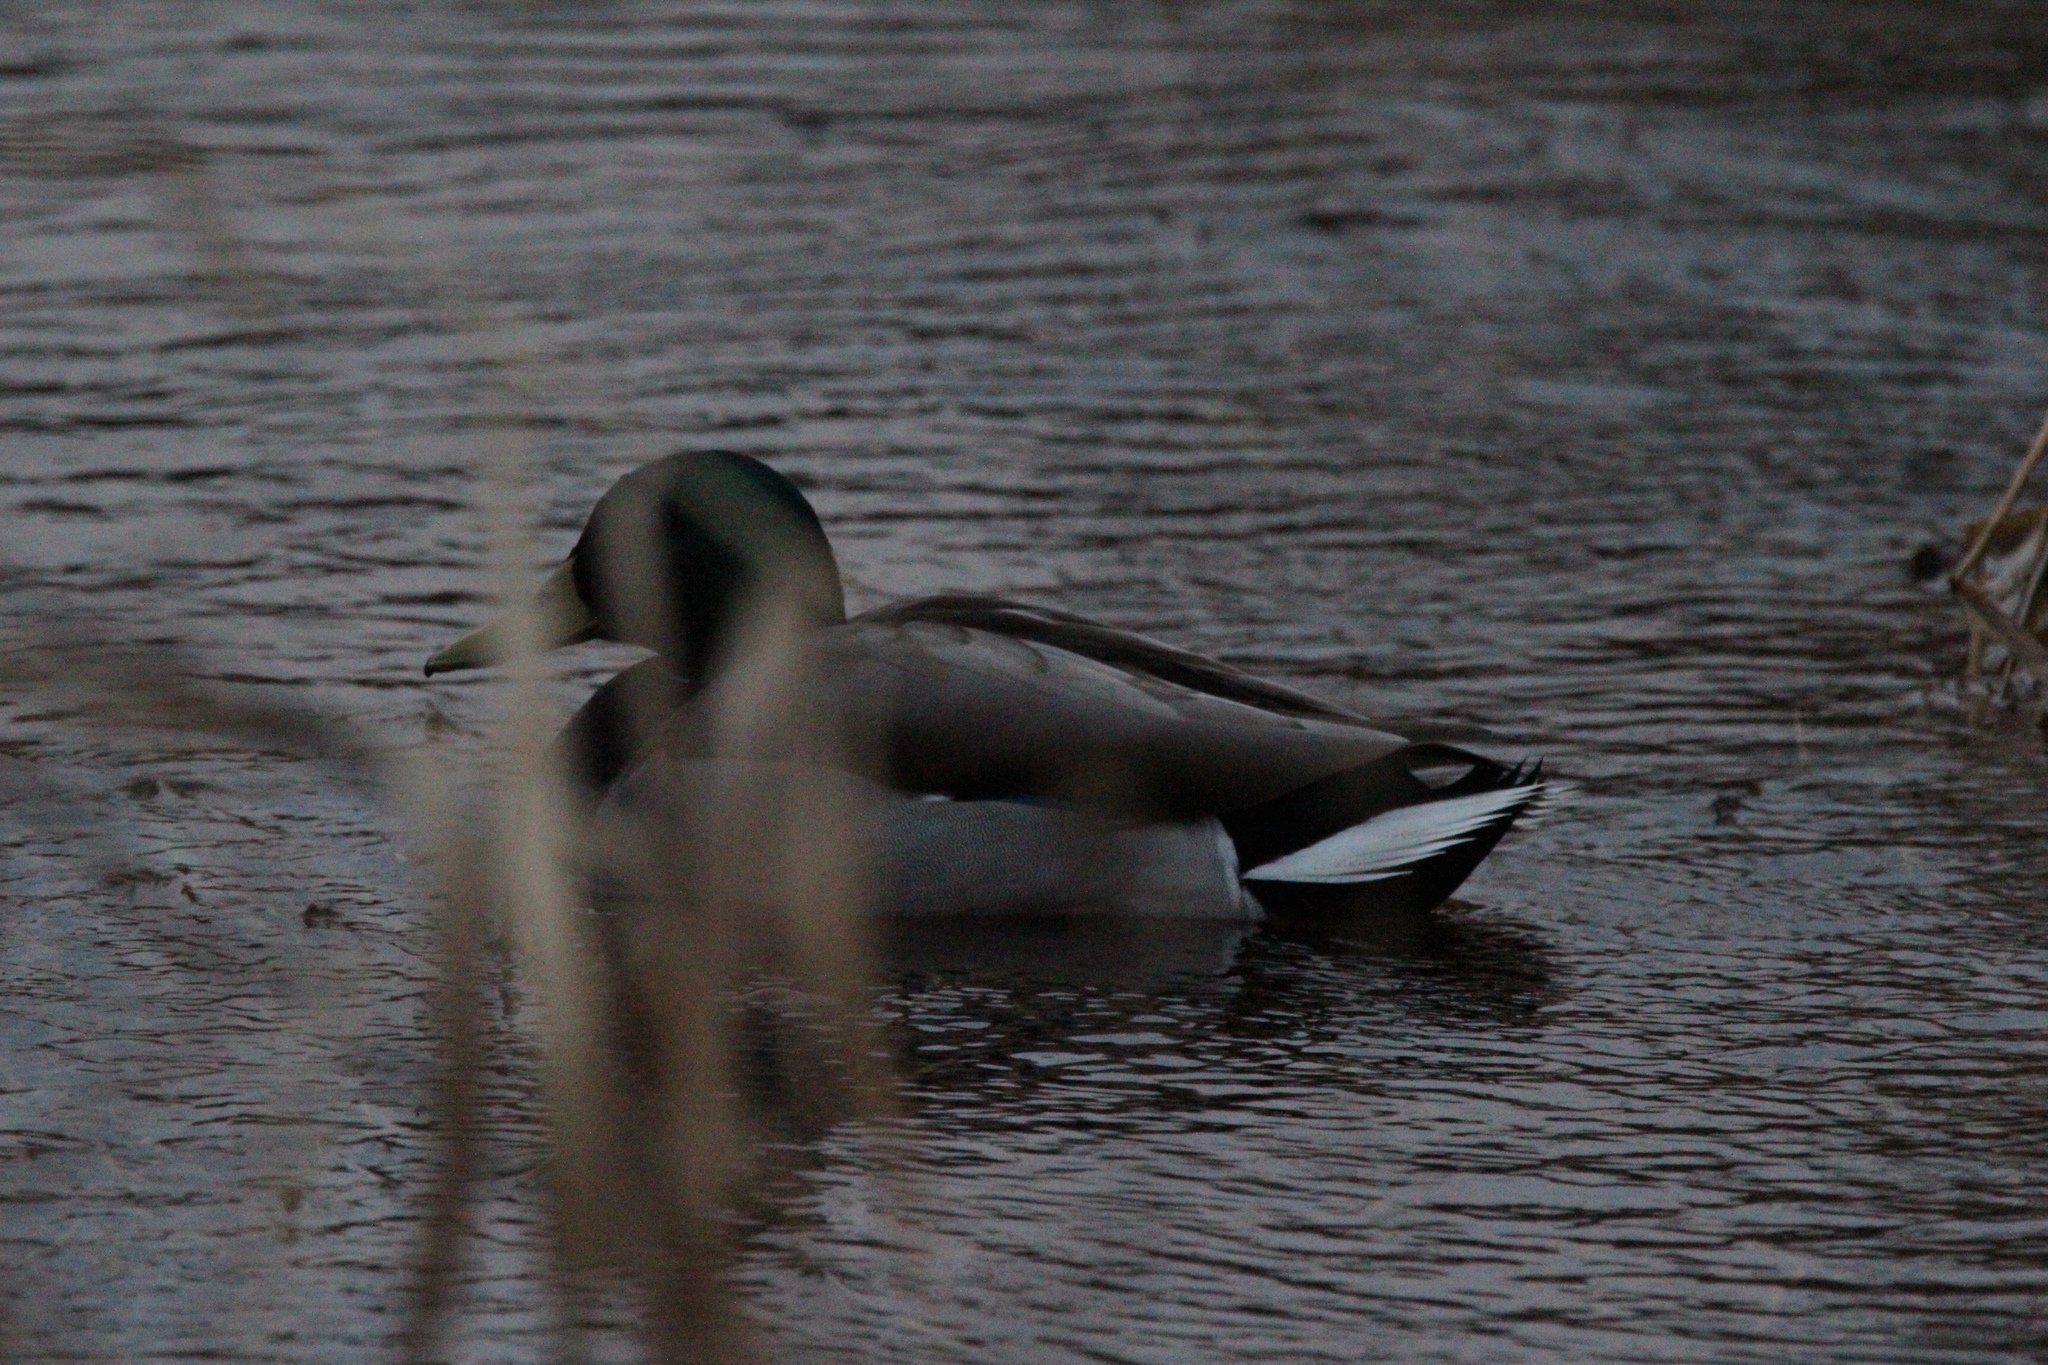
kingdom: Animalia
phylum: Chordata
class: Aves
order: Anseriformes
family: Anatidae
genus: Anas
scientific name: Anas platyrhynchos
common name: Mallard
